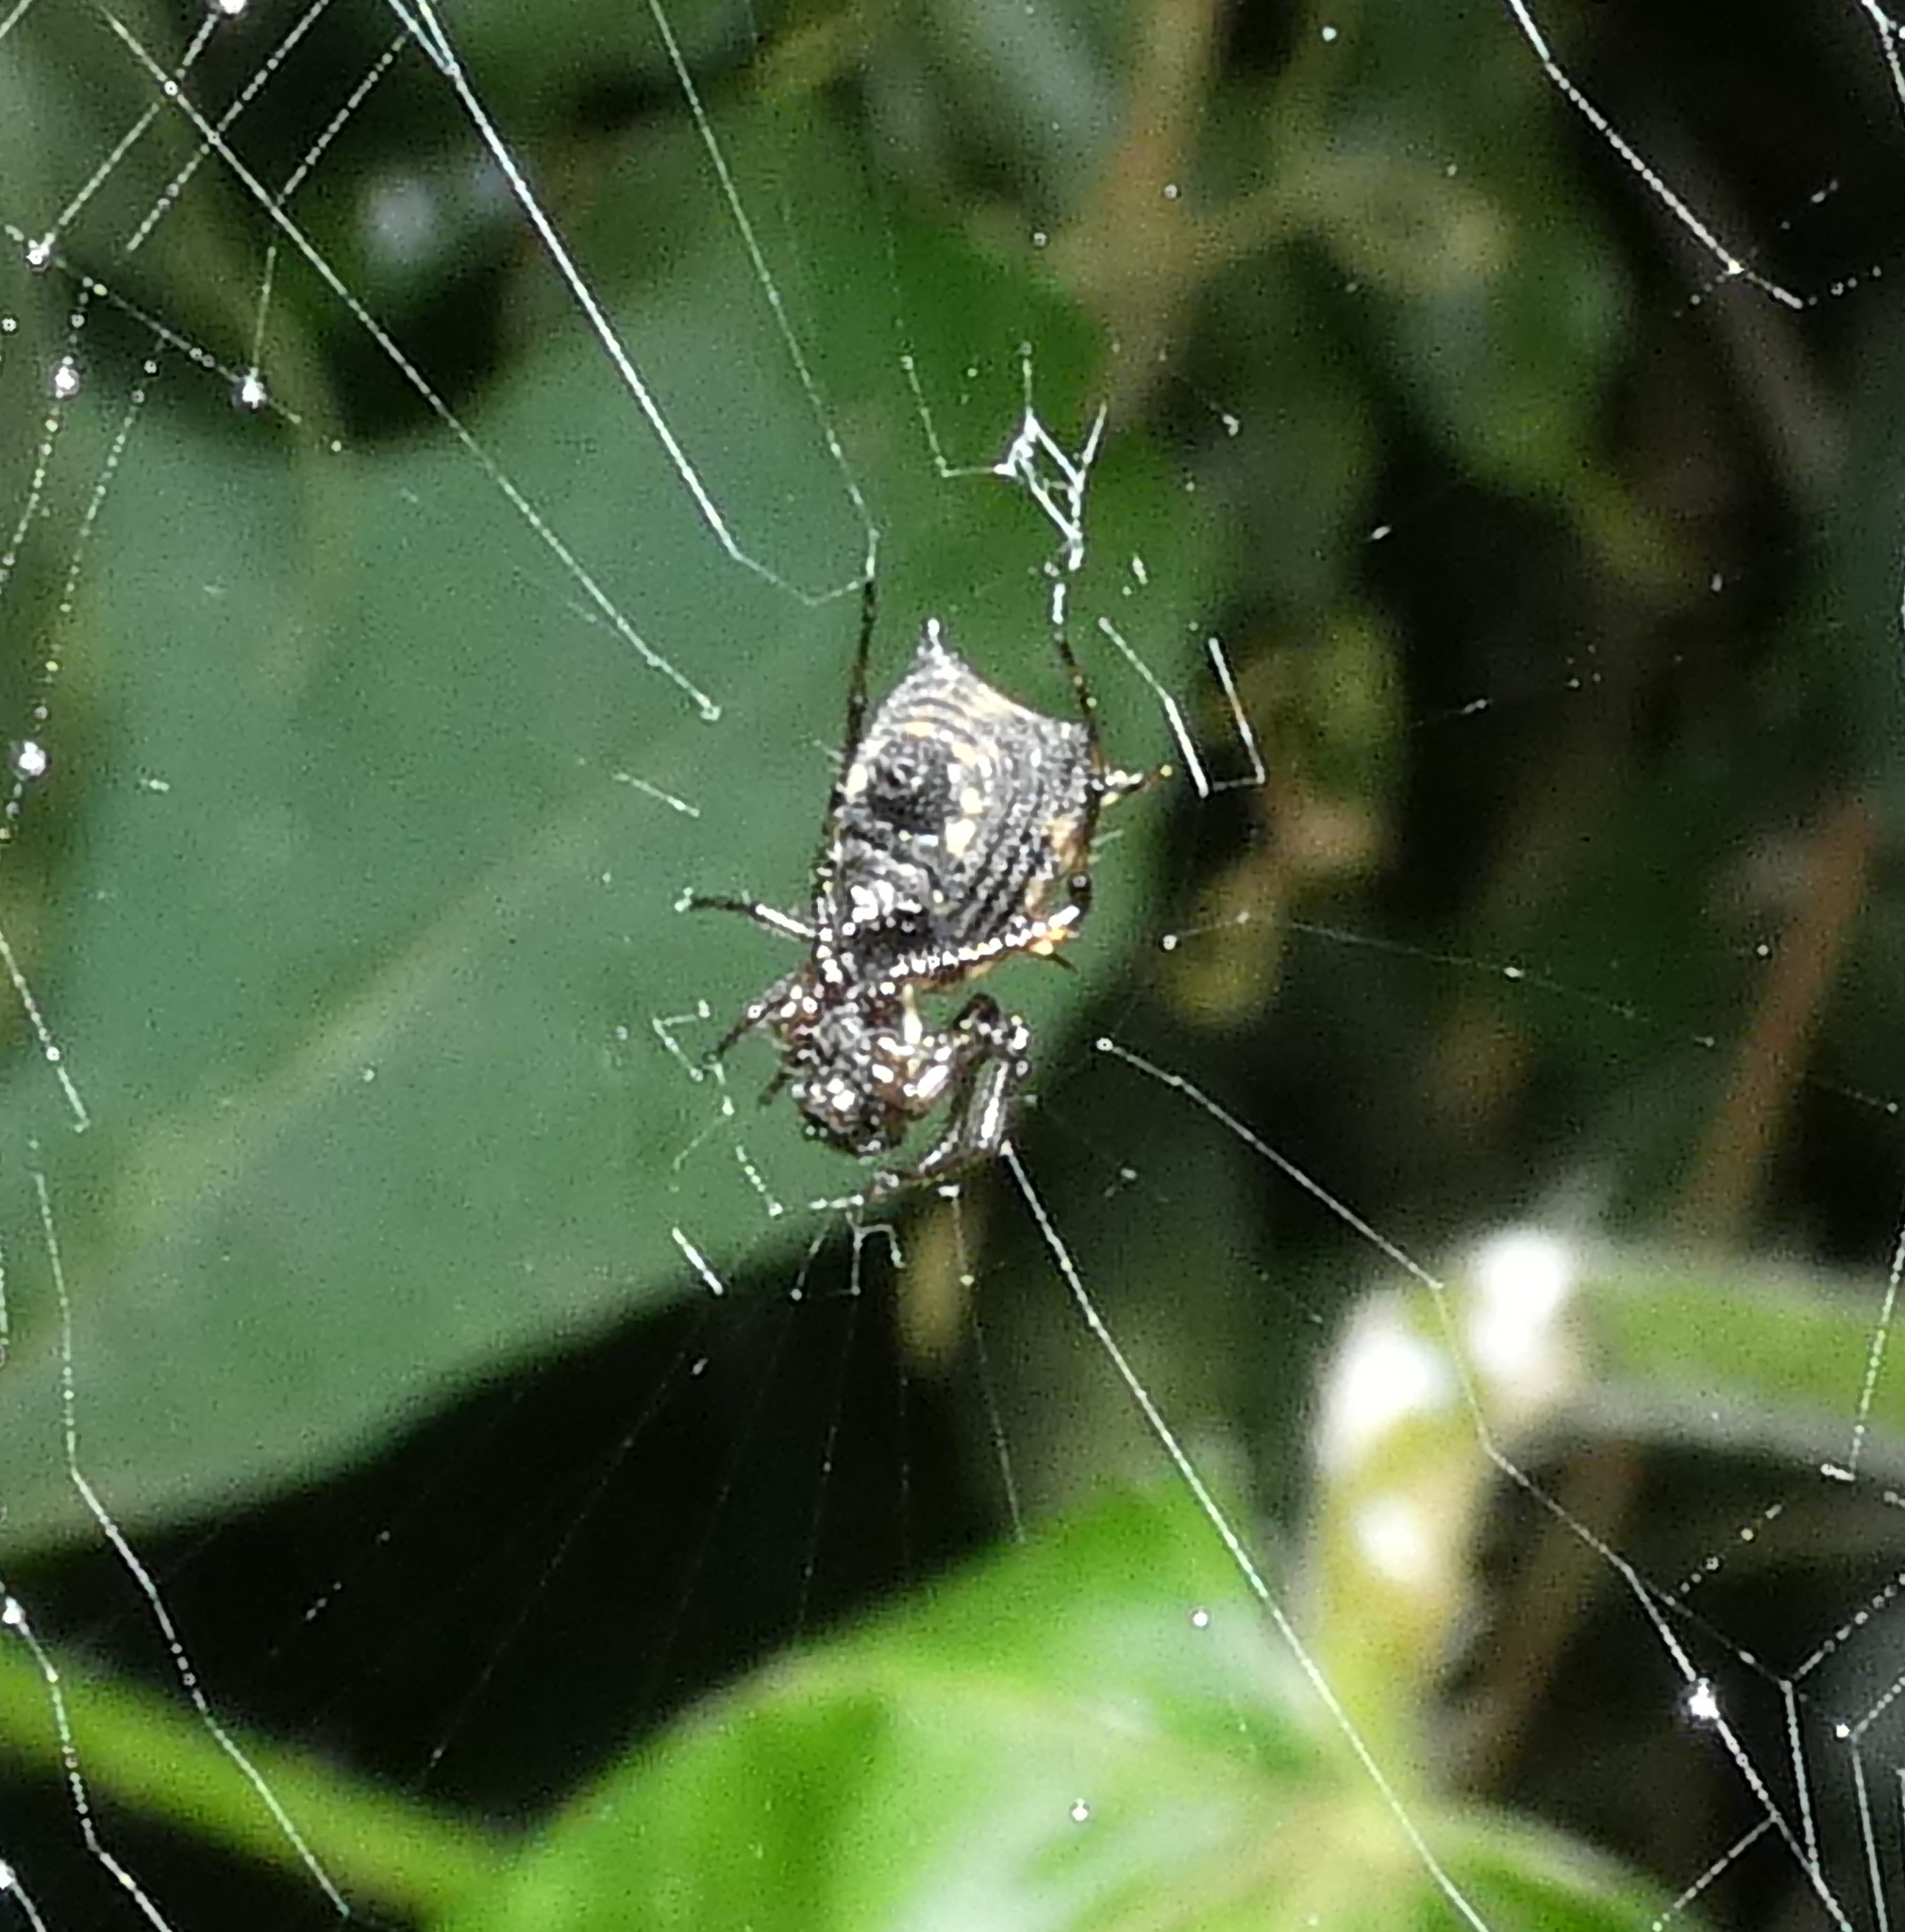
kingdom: Animalia
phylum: Arthropoda
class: Arachnida
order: Araneae
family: Araneidae
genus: Micrathena
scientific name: Micrathena picta
